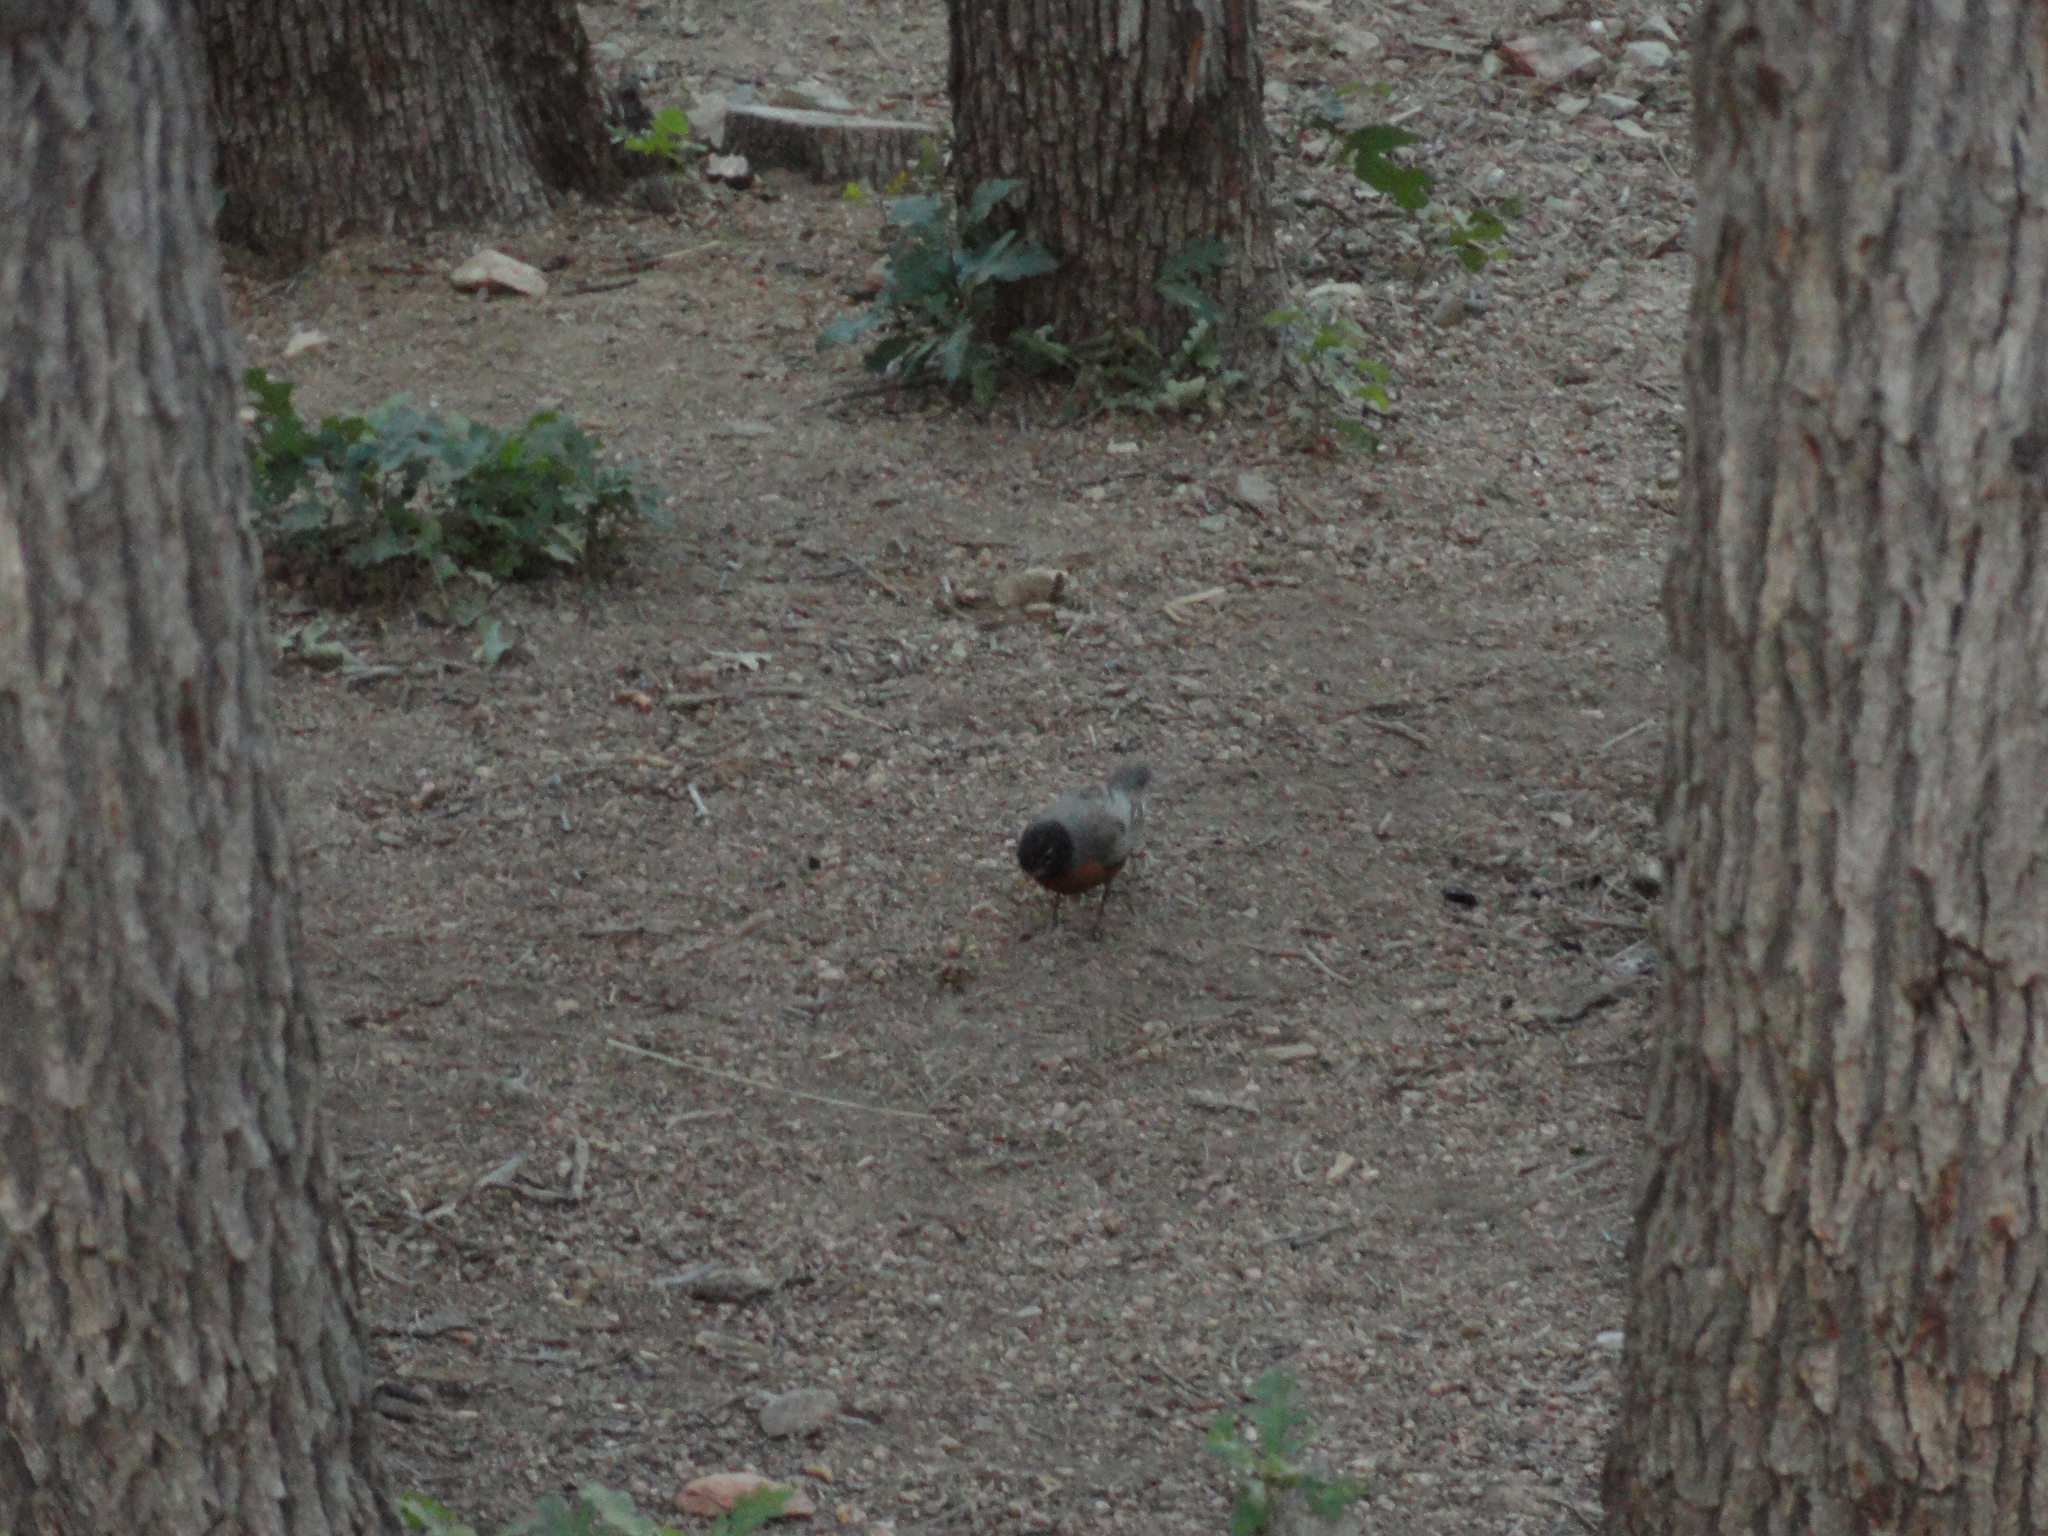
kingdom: Animalia
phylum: Chordata
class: Aves
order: Passeriformes
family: Turdidae
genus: Turdus
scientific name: Turdus migratorius
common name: American robin
